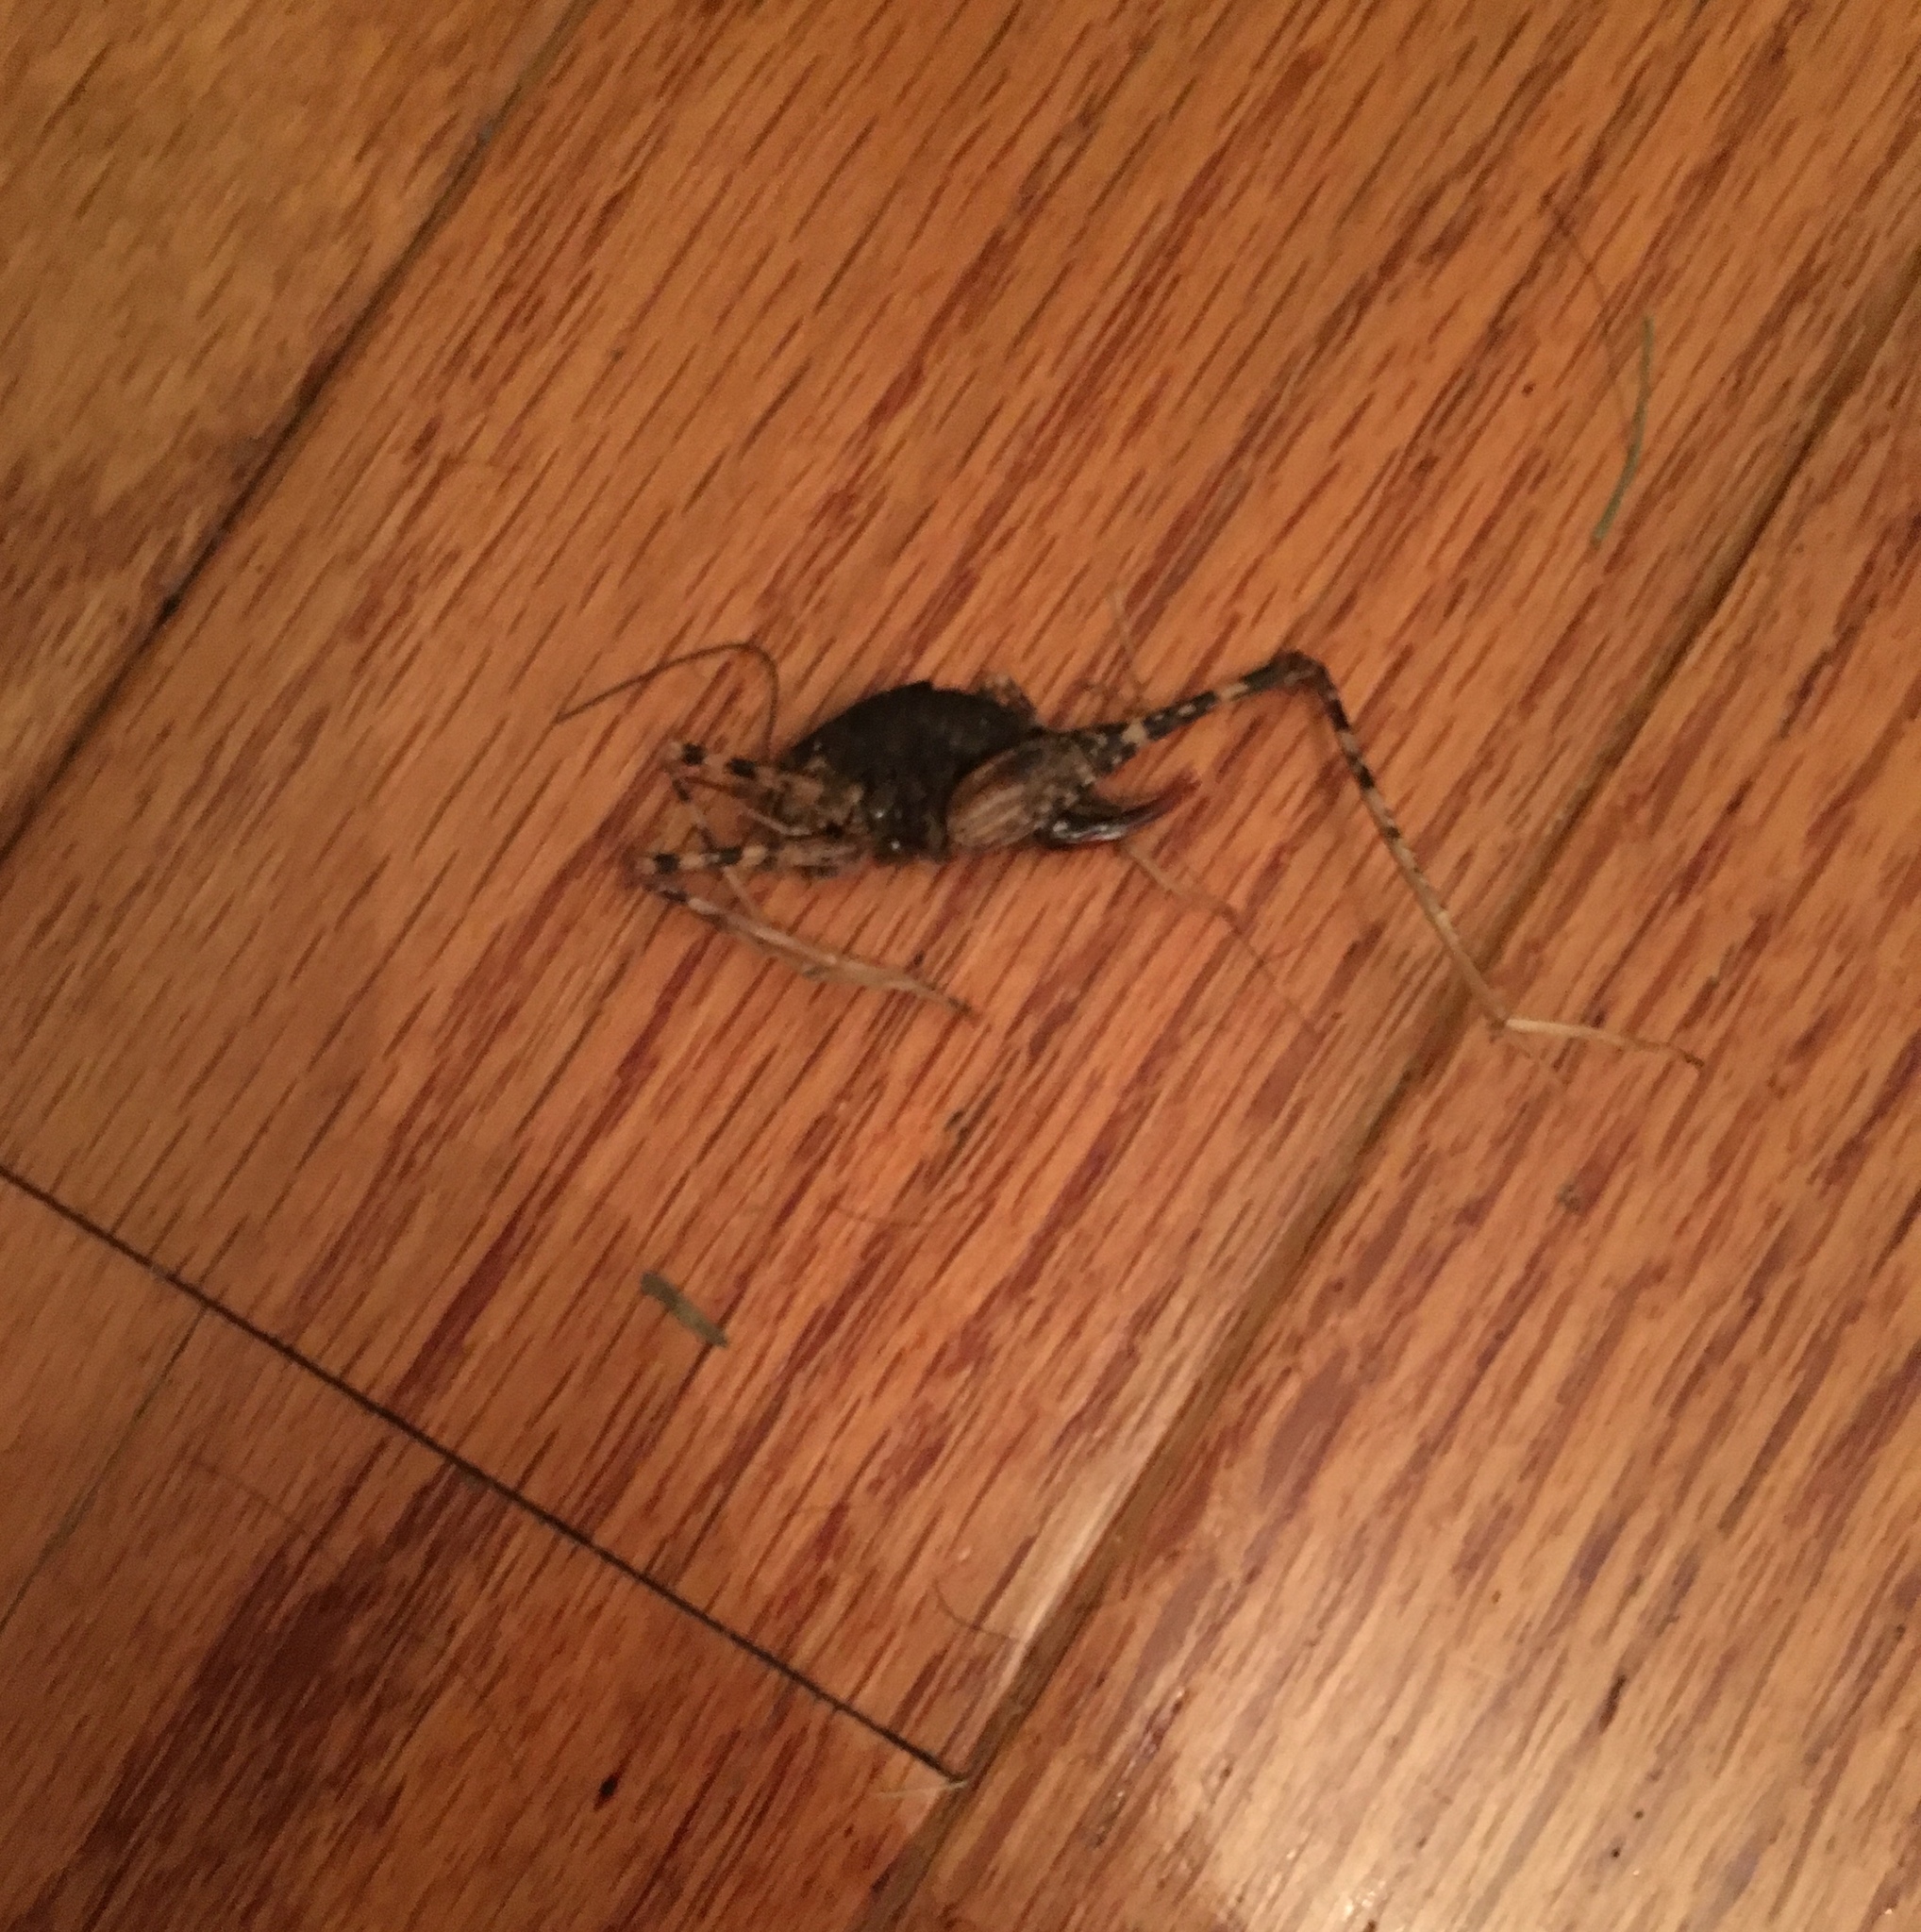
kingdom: Animalia
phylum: Arthropoda
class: Insecta
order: Orthoptera
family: Rhaphidophoridae
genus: Diestrammena
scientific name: Diestrammena japanica
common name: Japanese camel cricket
